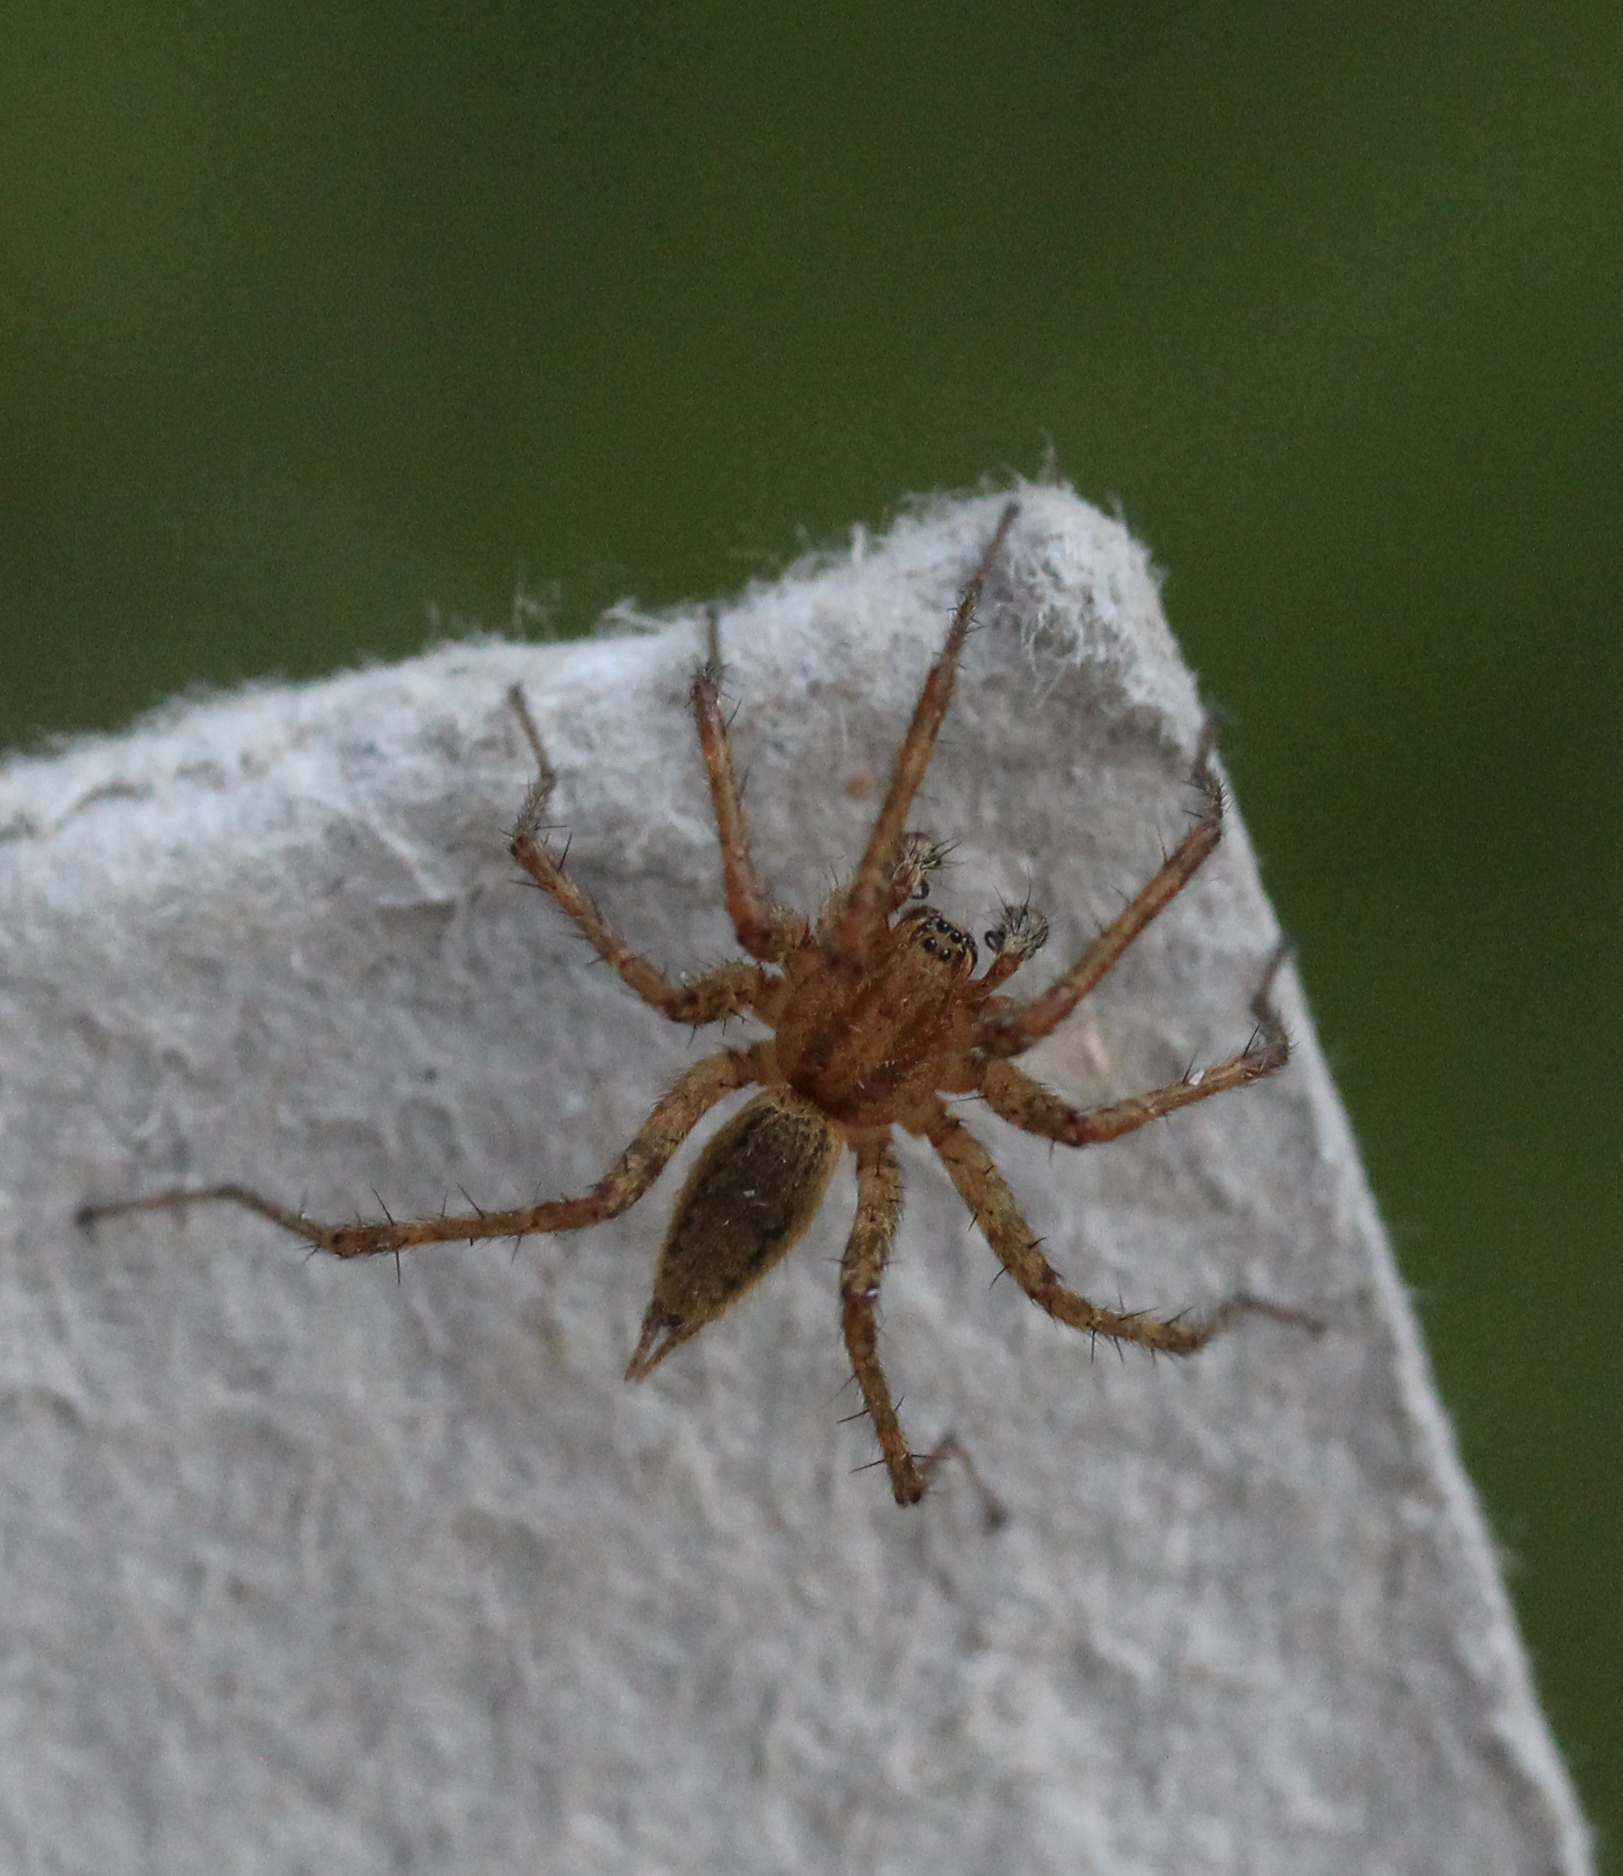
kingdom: Animalia
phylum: Arthropoda
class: Arachnida
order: Araneae
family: Agelenidae
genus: Agelenopsis
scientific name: Agelenopsis
